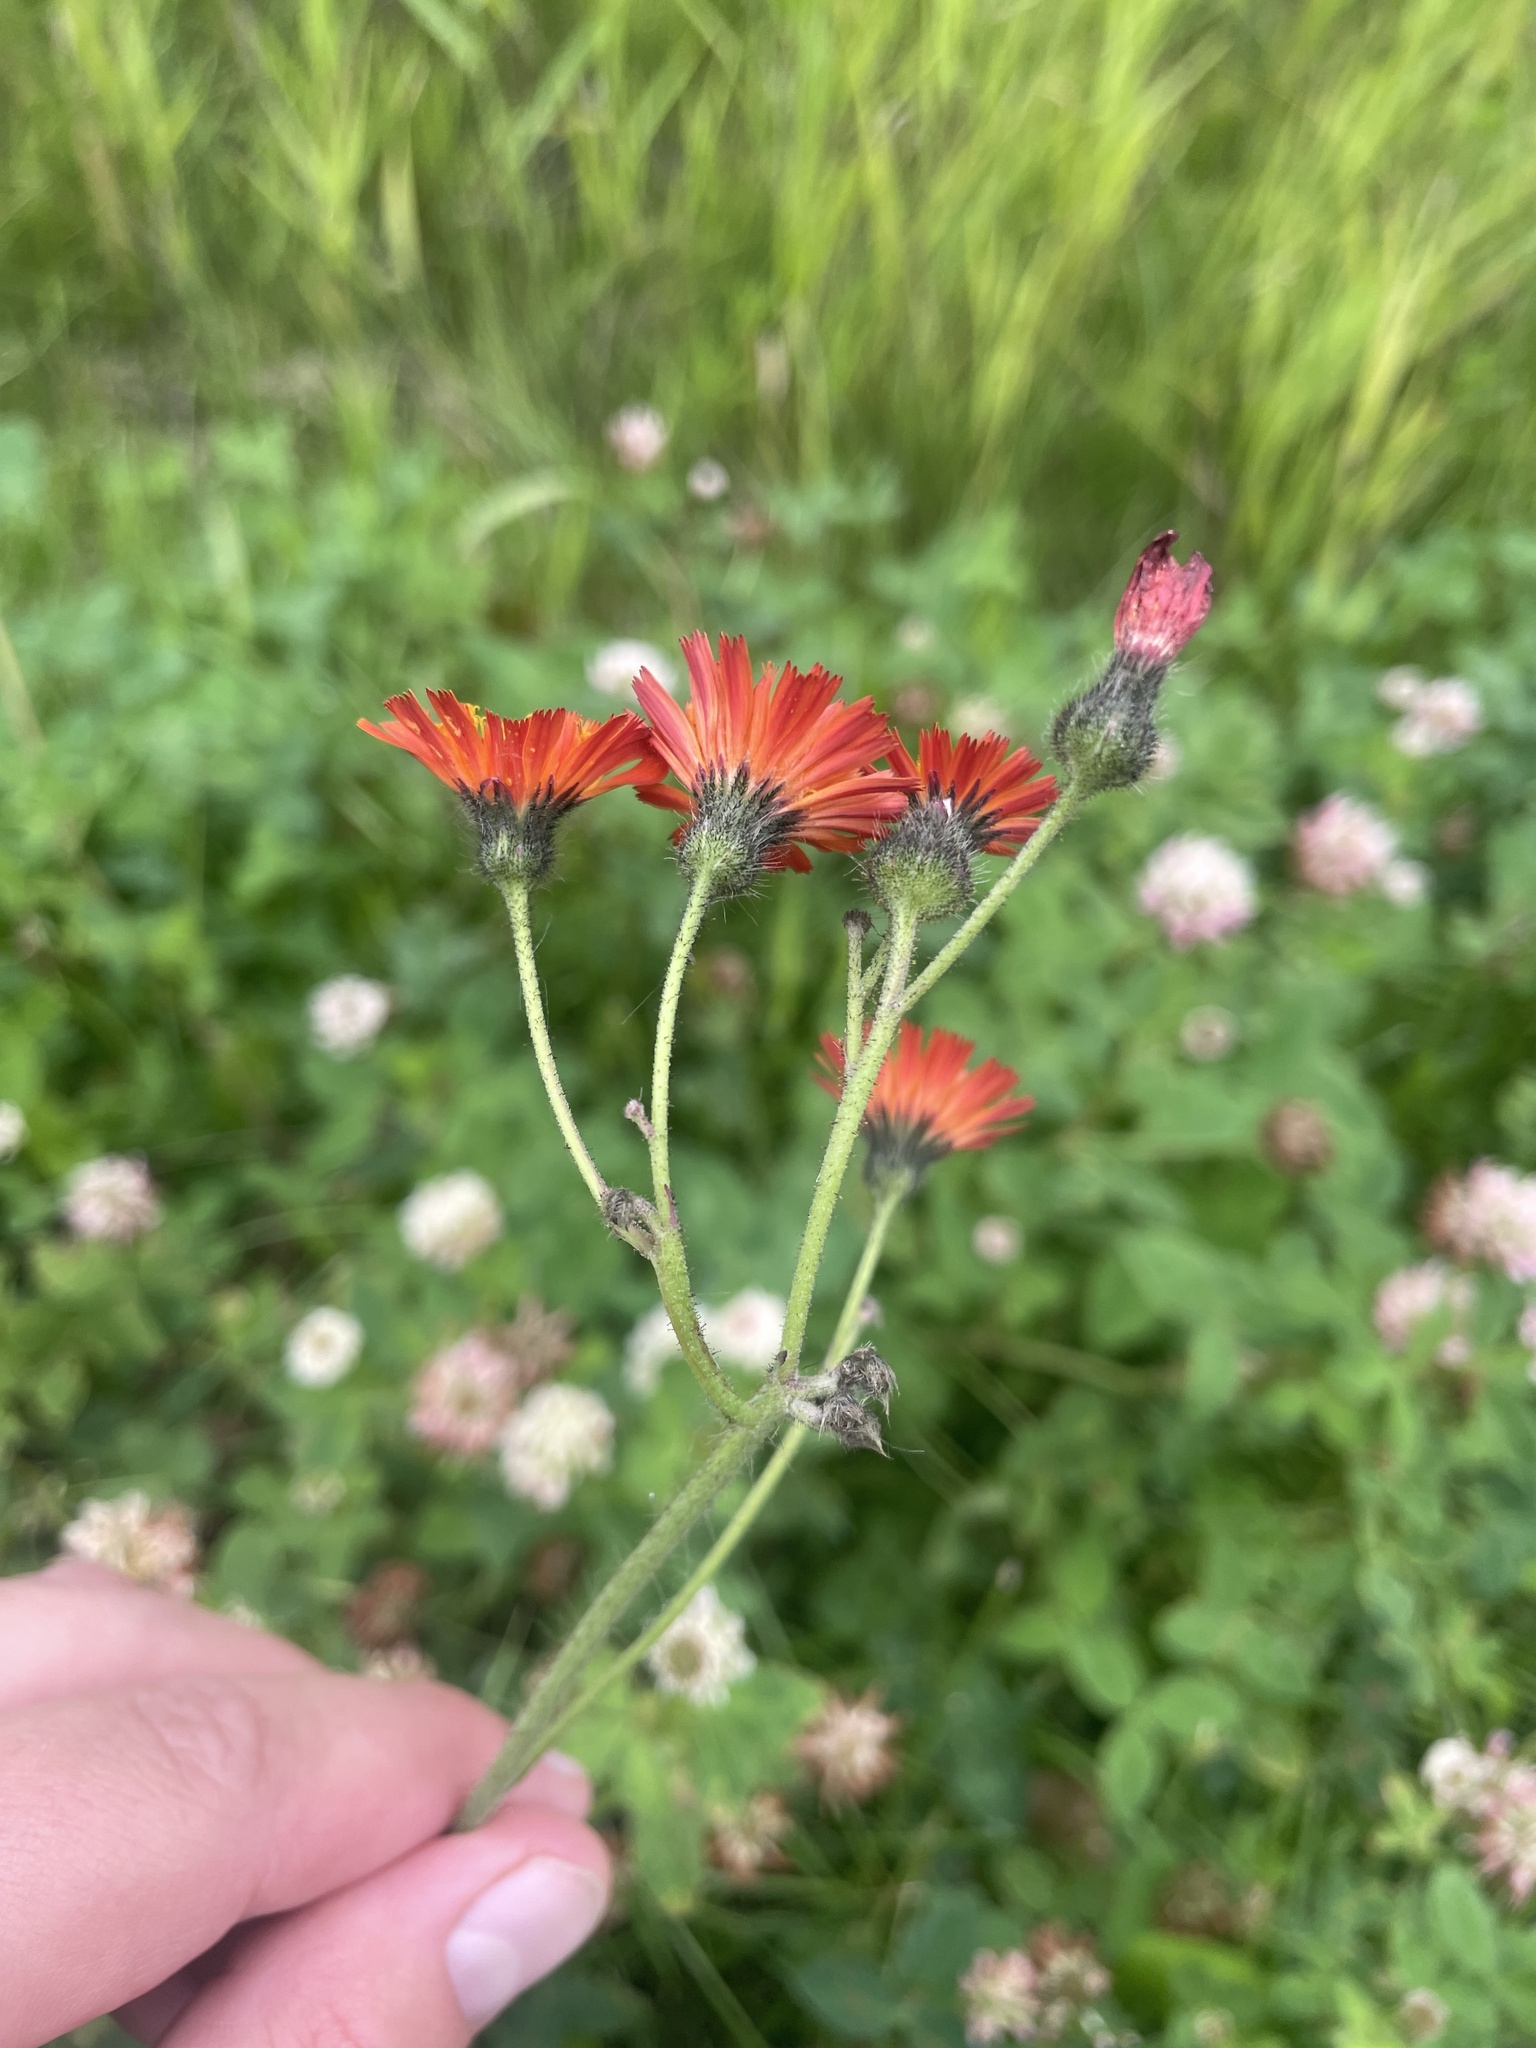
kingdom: Plantae
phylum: Tracheophyta
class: Magnoliopsida
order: Asterales
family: Asteraceae
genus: Pilosella
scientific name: Pilosella aurantiaca
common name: Fox-and-cubs
